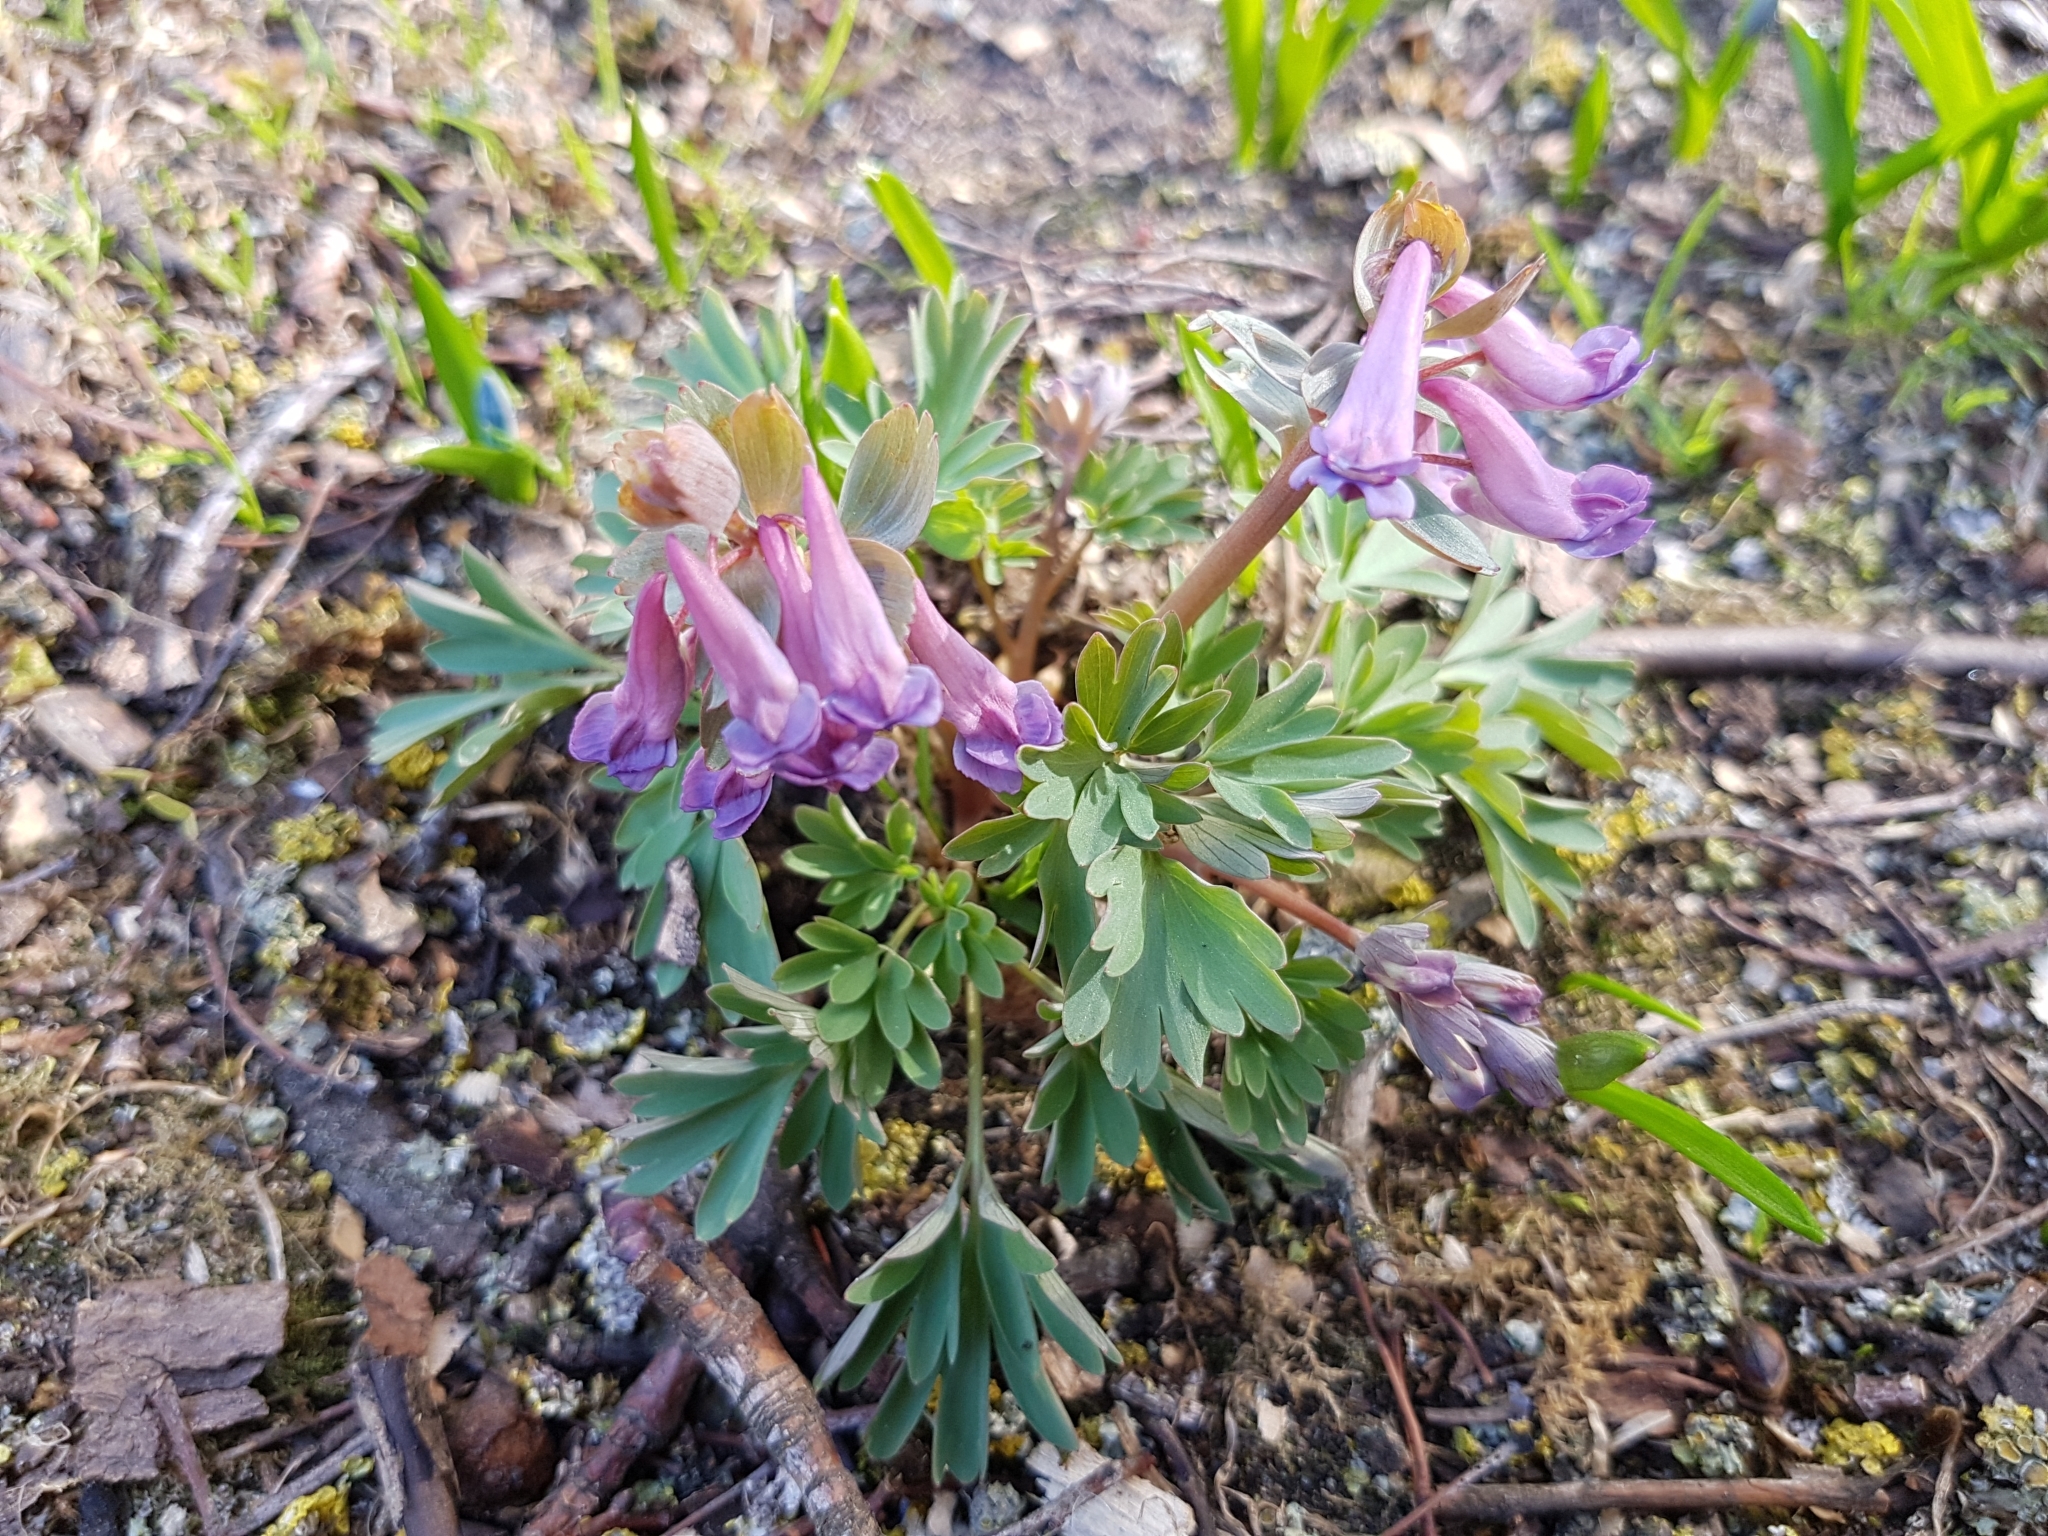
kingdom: Plantae
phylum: Tracheophyta
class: Magnoliopsida
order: Ranunculales
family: Papaveraceae
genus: Corydalis
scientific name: Corydalis solida
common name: Bird-in-a-bush
